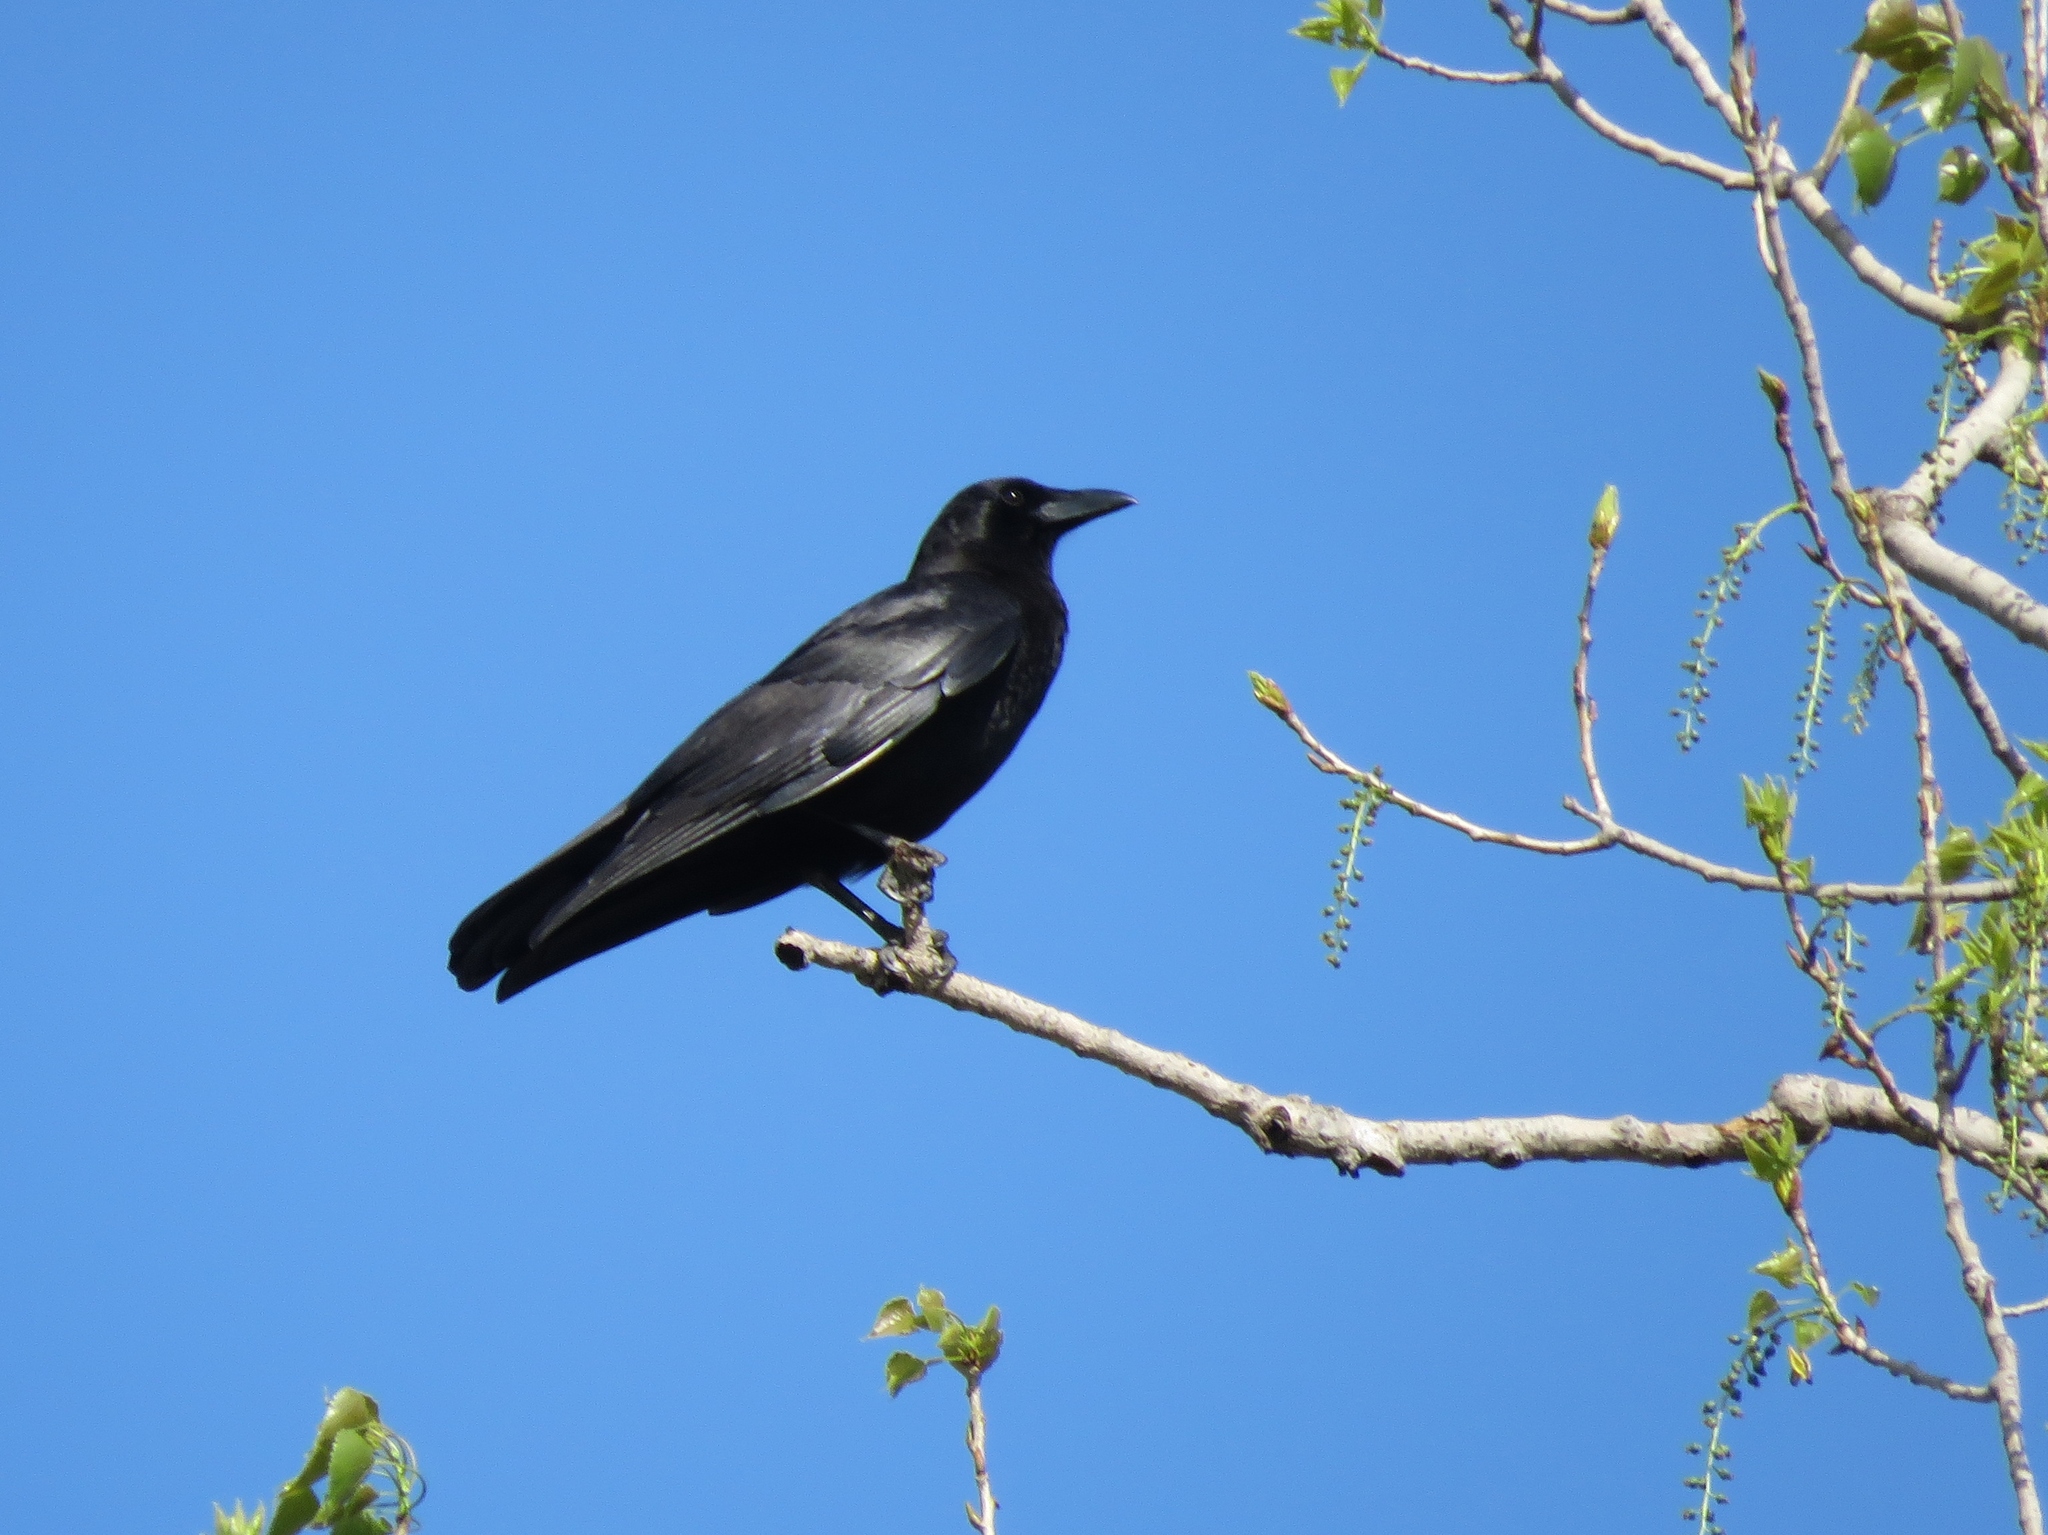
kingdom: Animalia
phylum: Chordata
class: Aves
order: Passeriformes
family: Corvidae
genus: Corvus
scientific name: Corvus brachyrhynchos
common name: American crow
